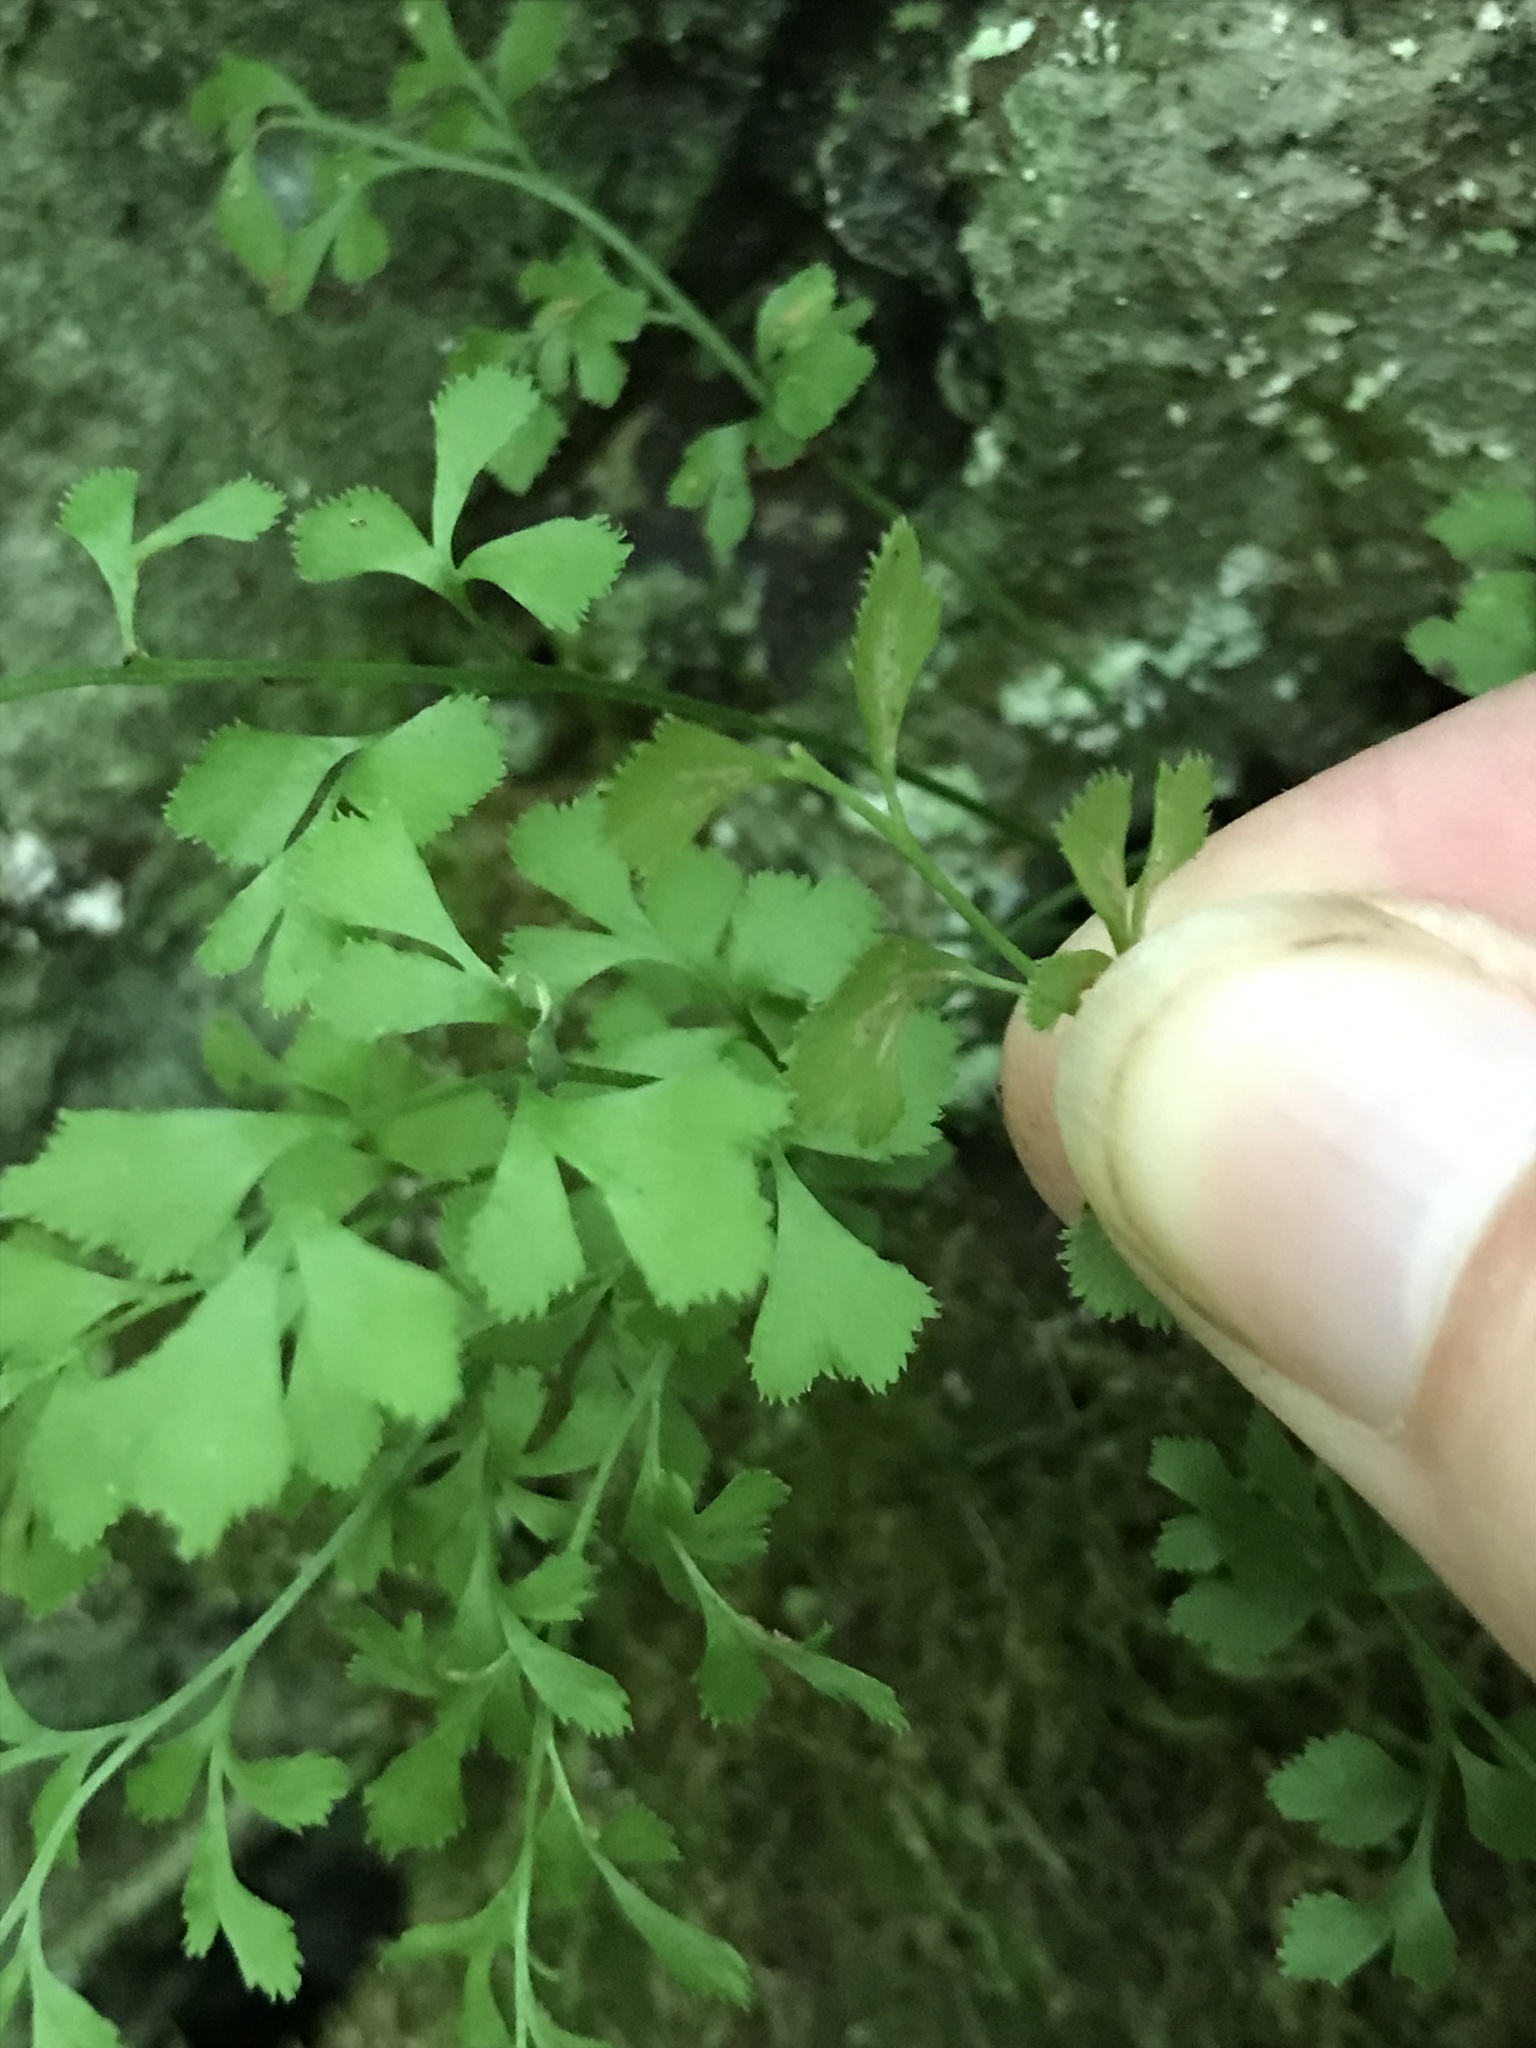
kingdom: Plantae
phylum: Tracheophyta
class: Polypodiopsida
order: Polypodiales
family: Aspleniaceae
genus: Asplenium
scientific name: Asplenium ruta-muraria
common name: Wall-rue
